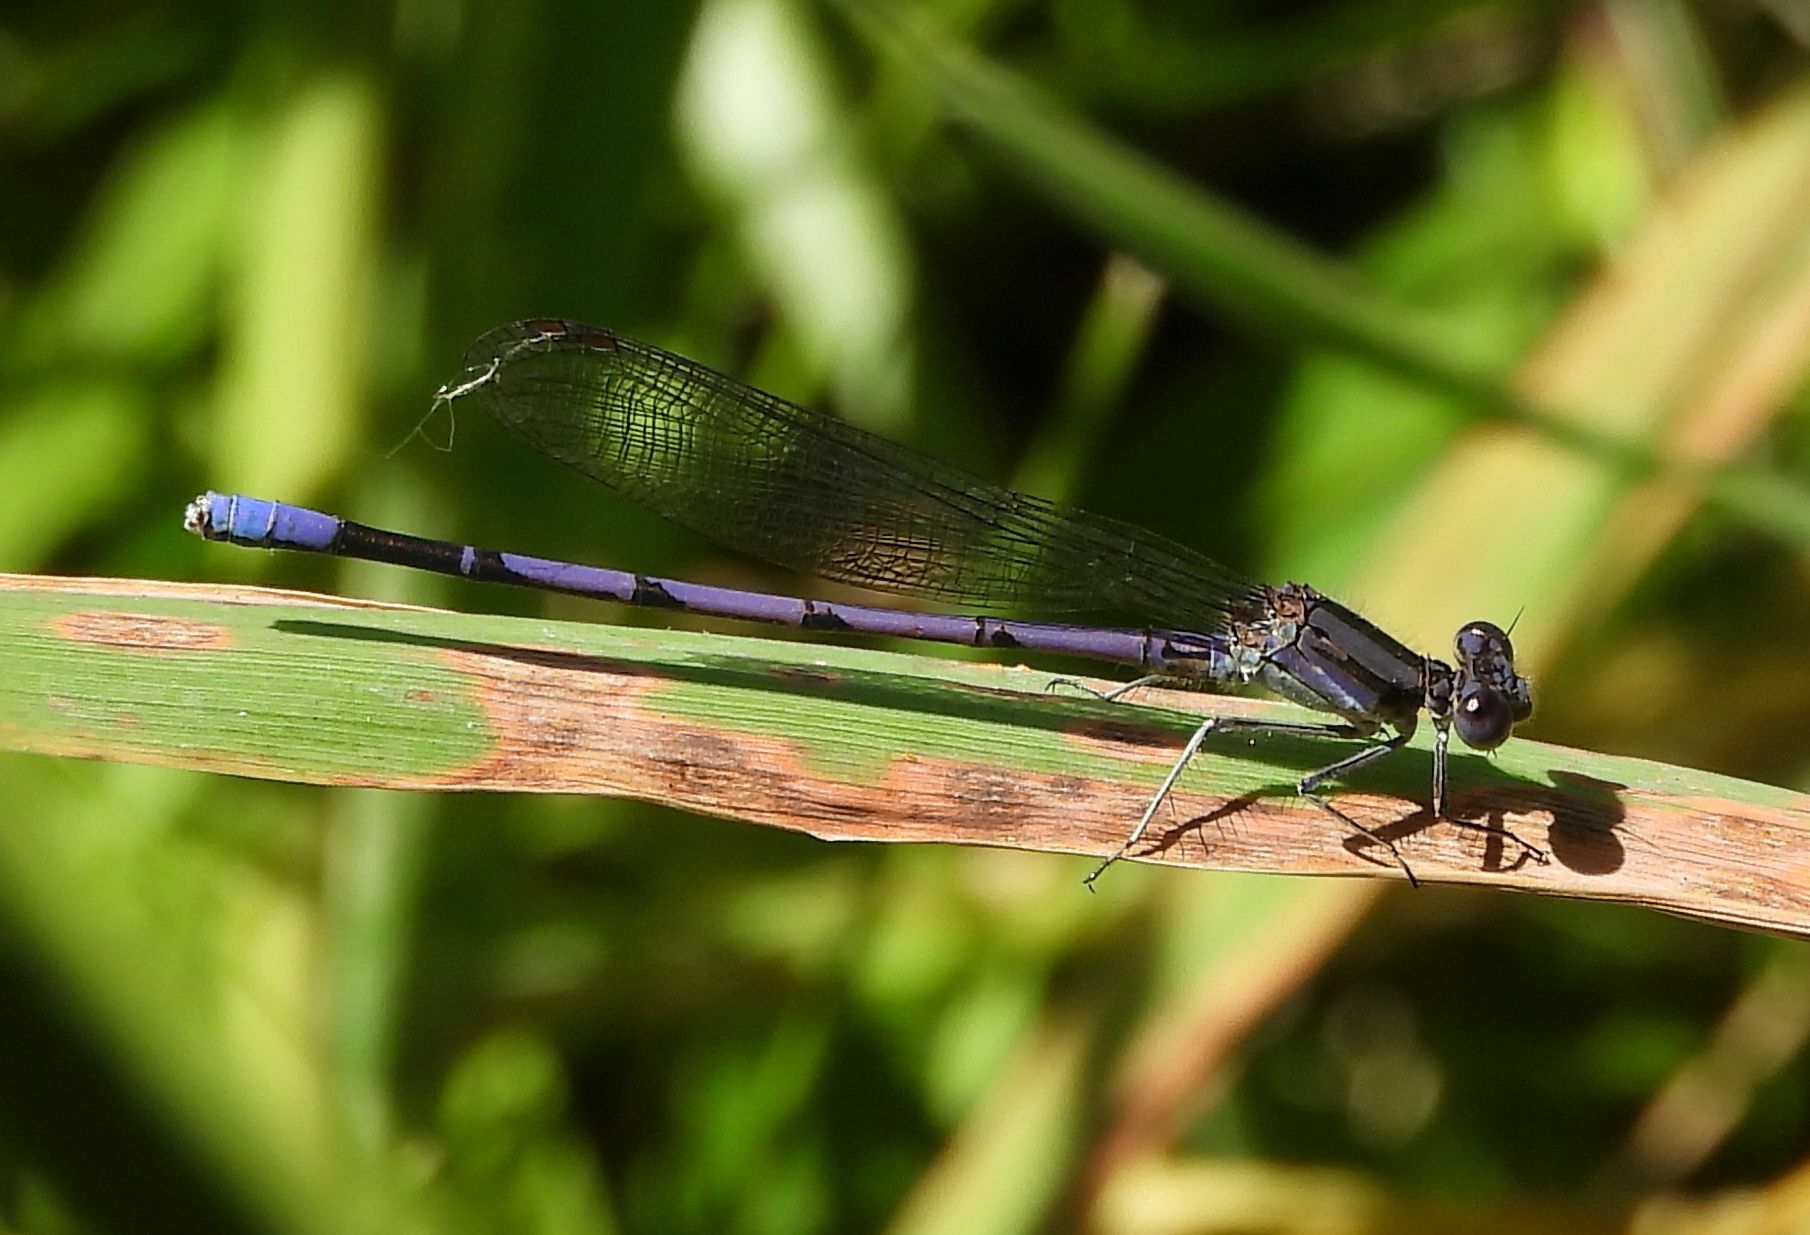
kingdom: Animalia
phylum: Arthropoda
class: Insecta
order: Odonata
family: Coenagrionidae
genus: Argia
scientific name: Argia fumipennis
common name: Variable dancer
